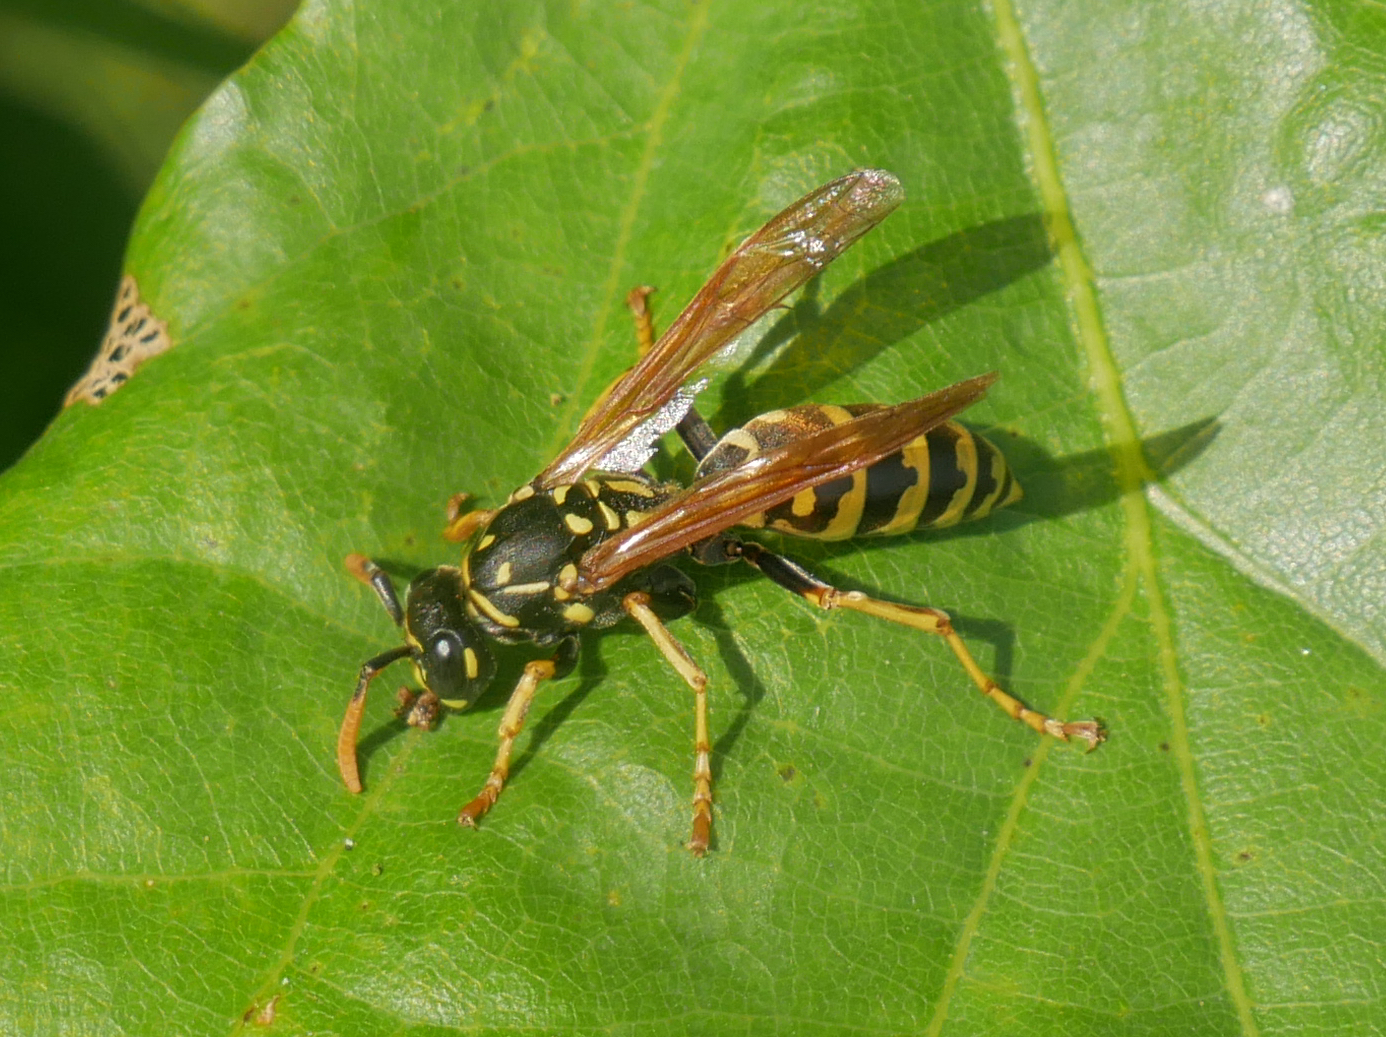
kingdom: Animalia
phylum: Arthropoda
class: Insecta
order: Hymenoptera
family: Eumenidae
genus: Polistes
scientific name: Polistes dominula
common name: Paper wasp
